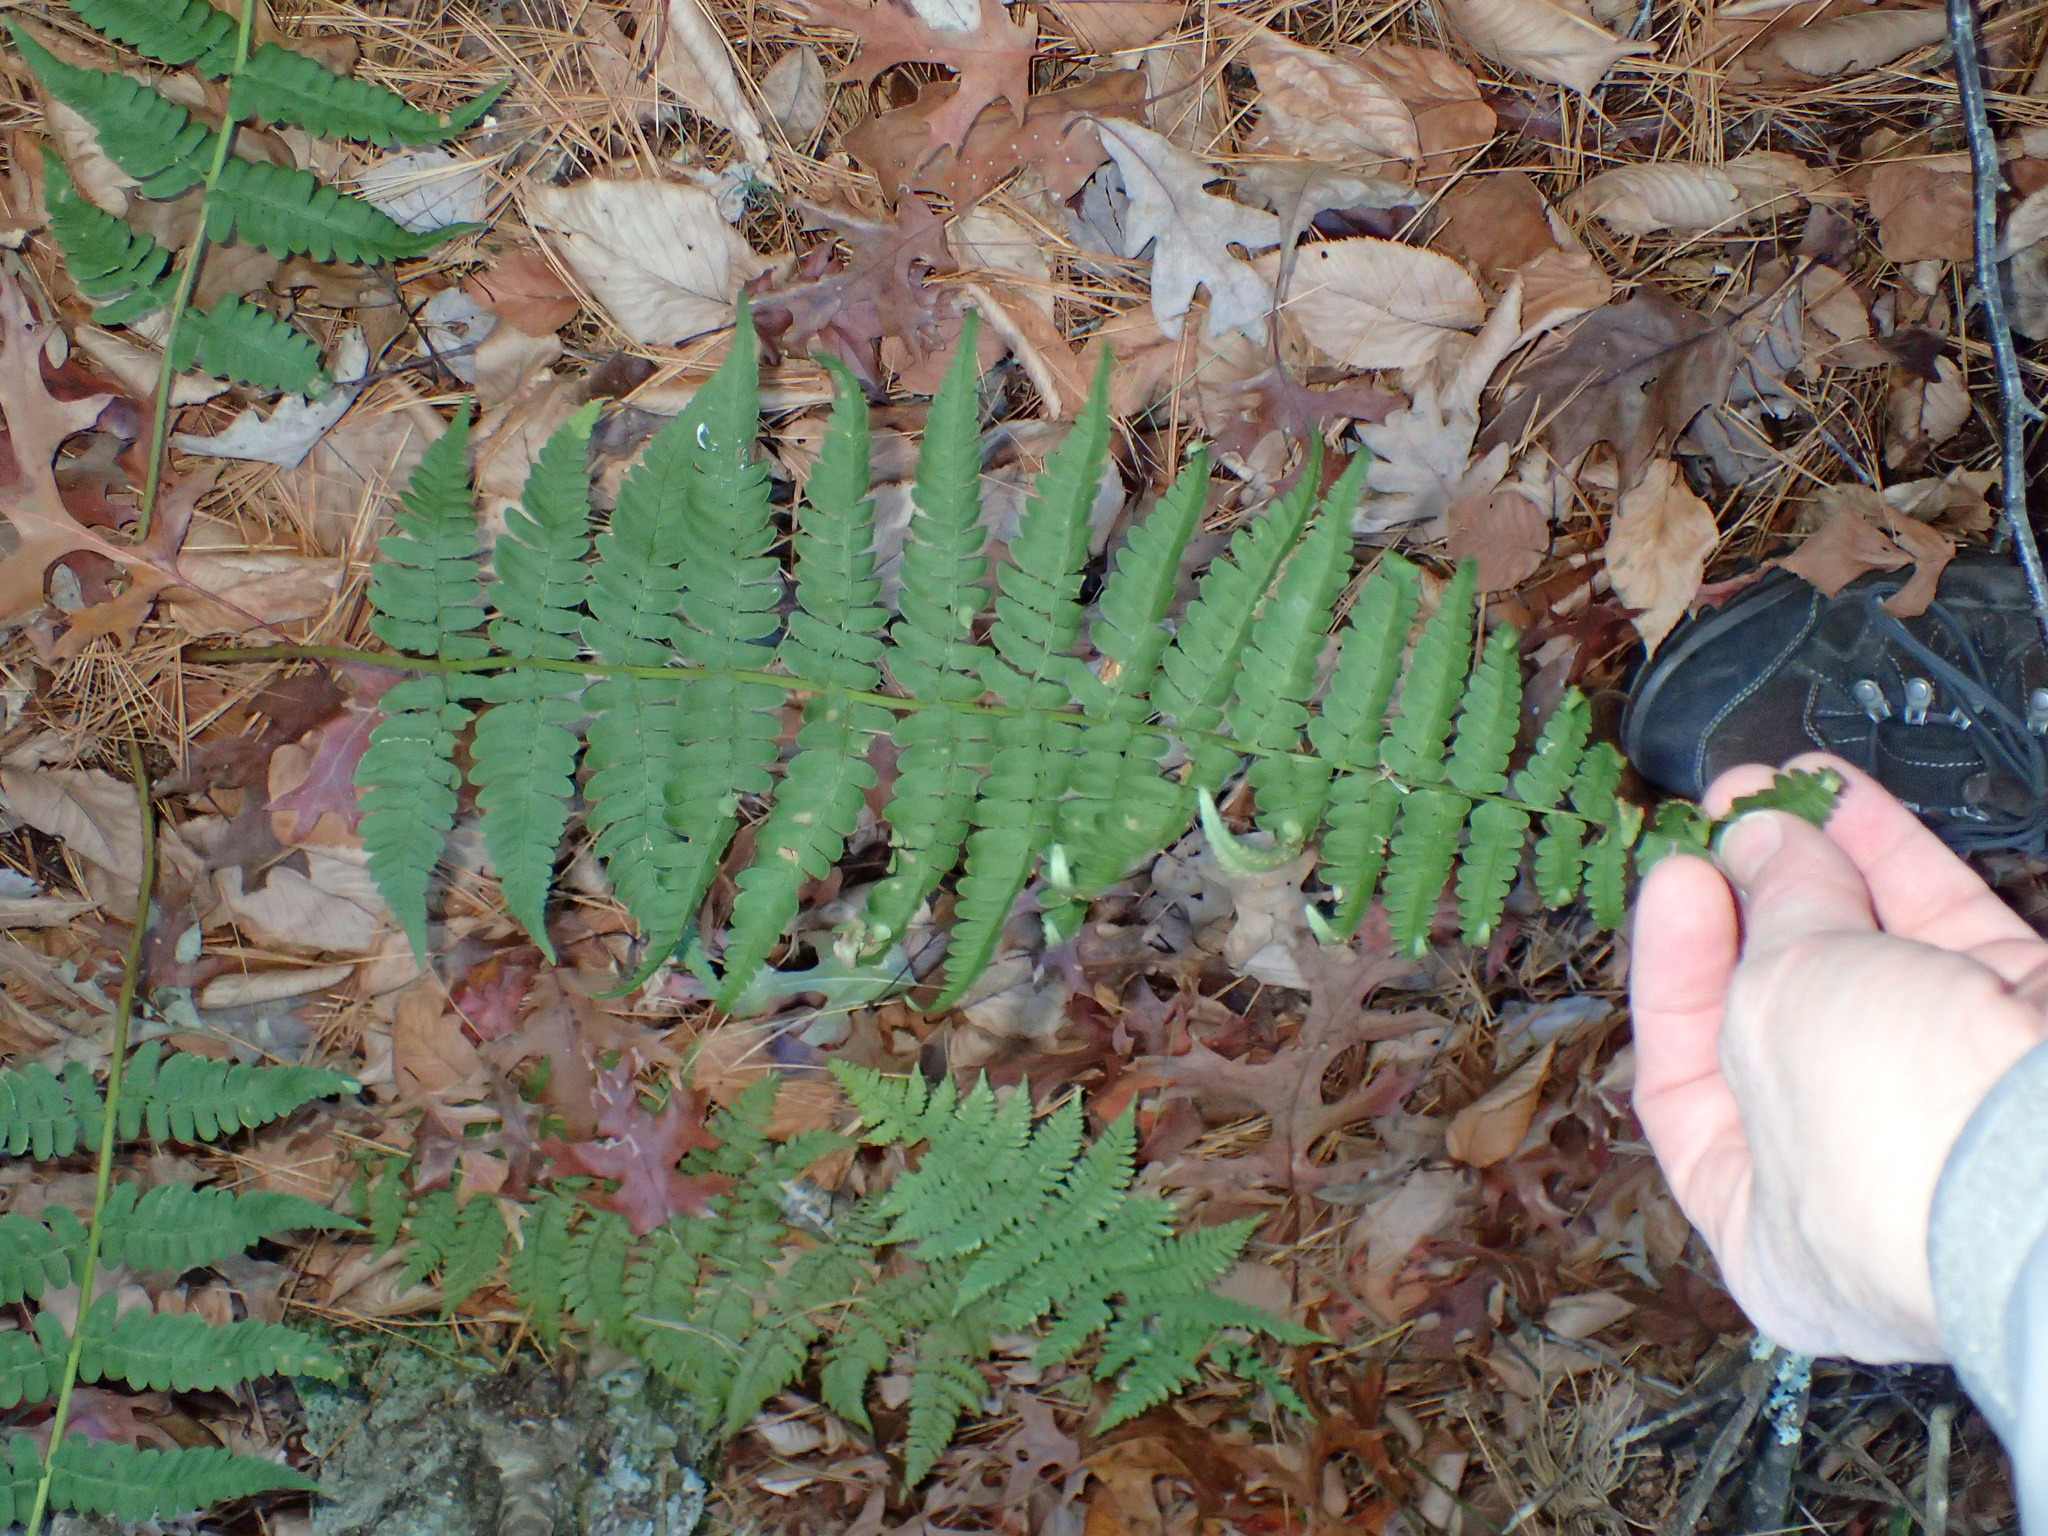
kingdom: Plantae
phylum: Tracheophyta
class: Polypodiopsida
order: Polypodiales
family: Dryopteridaceae
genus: Dryopteris
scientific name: Dryopteris marginalis
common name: Marginal wood fern
